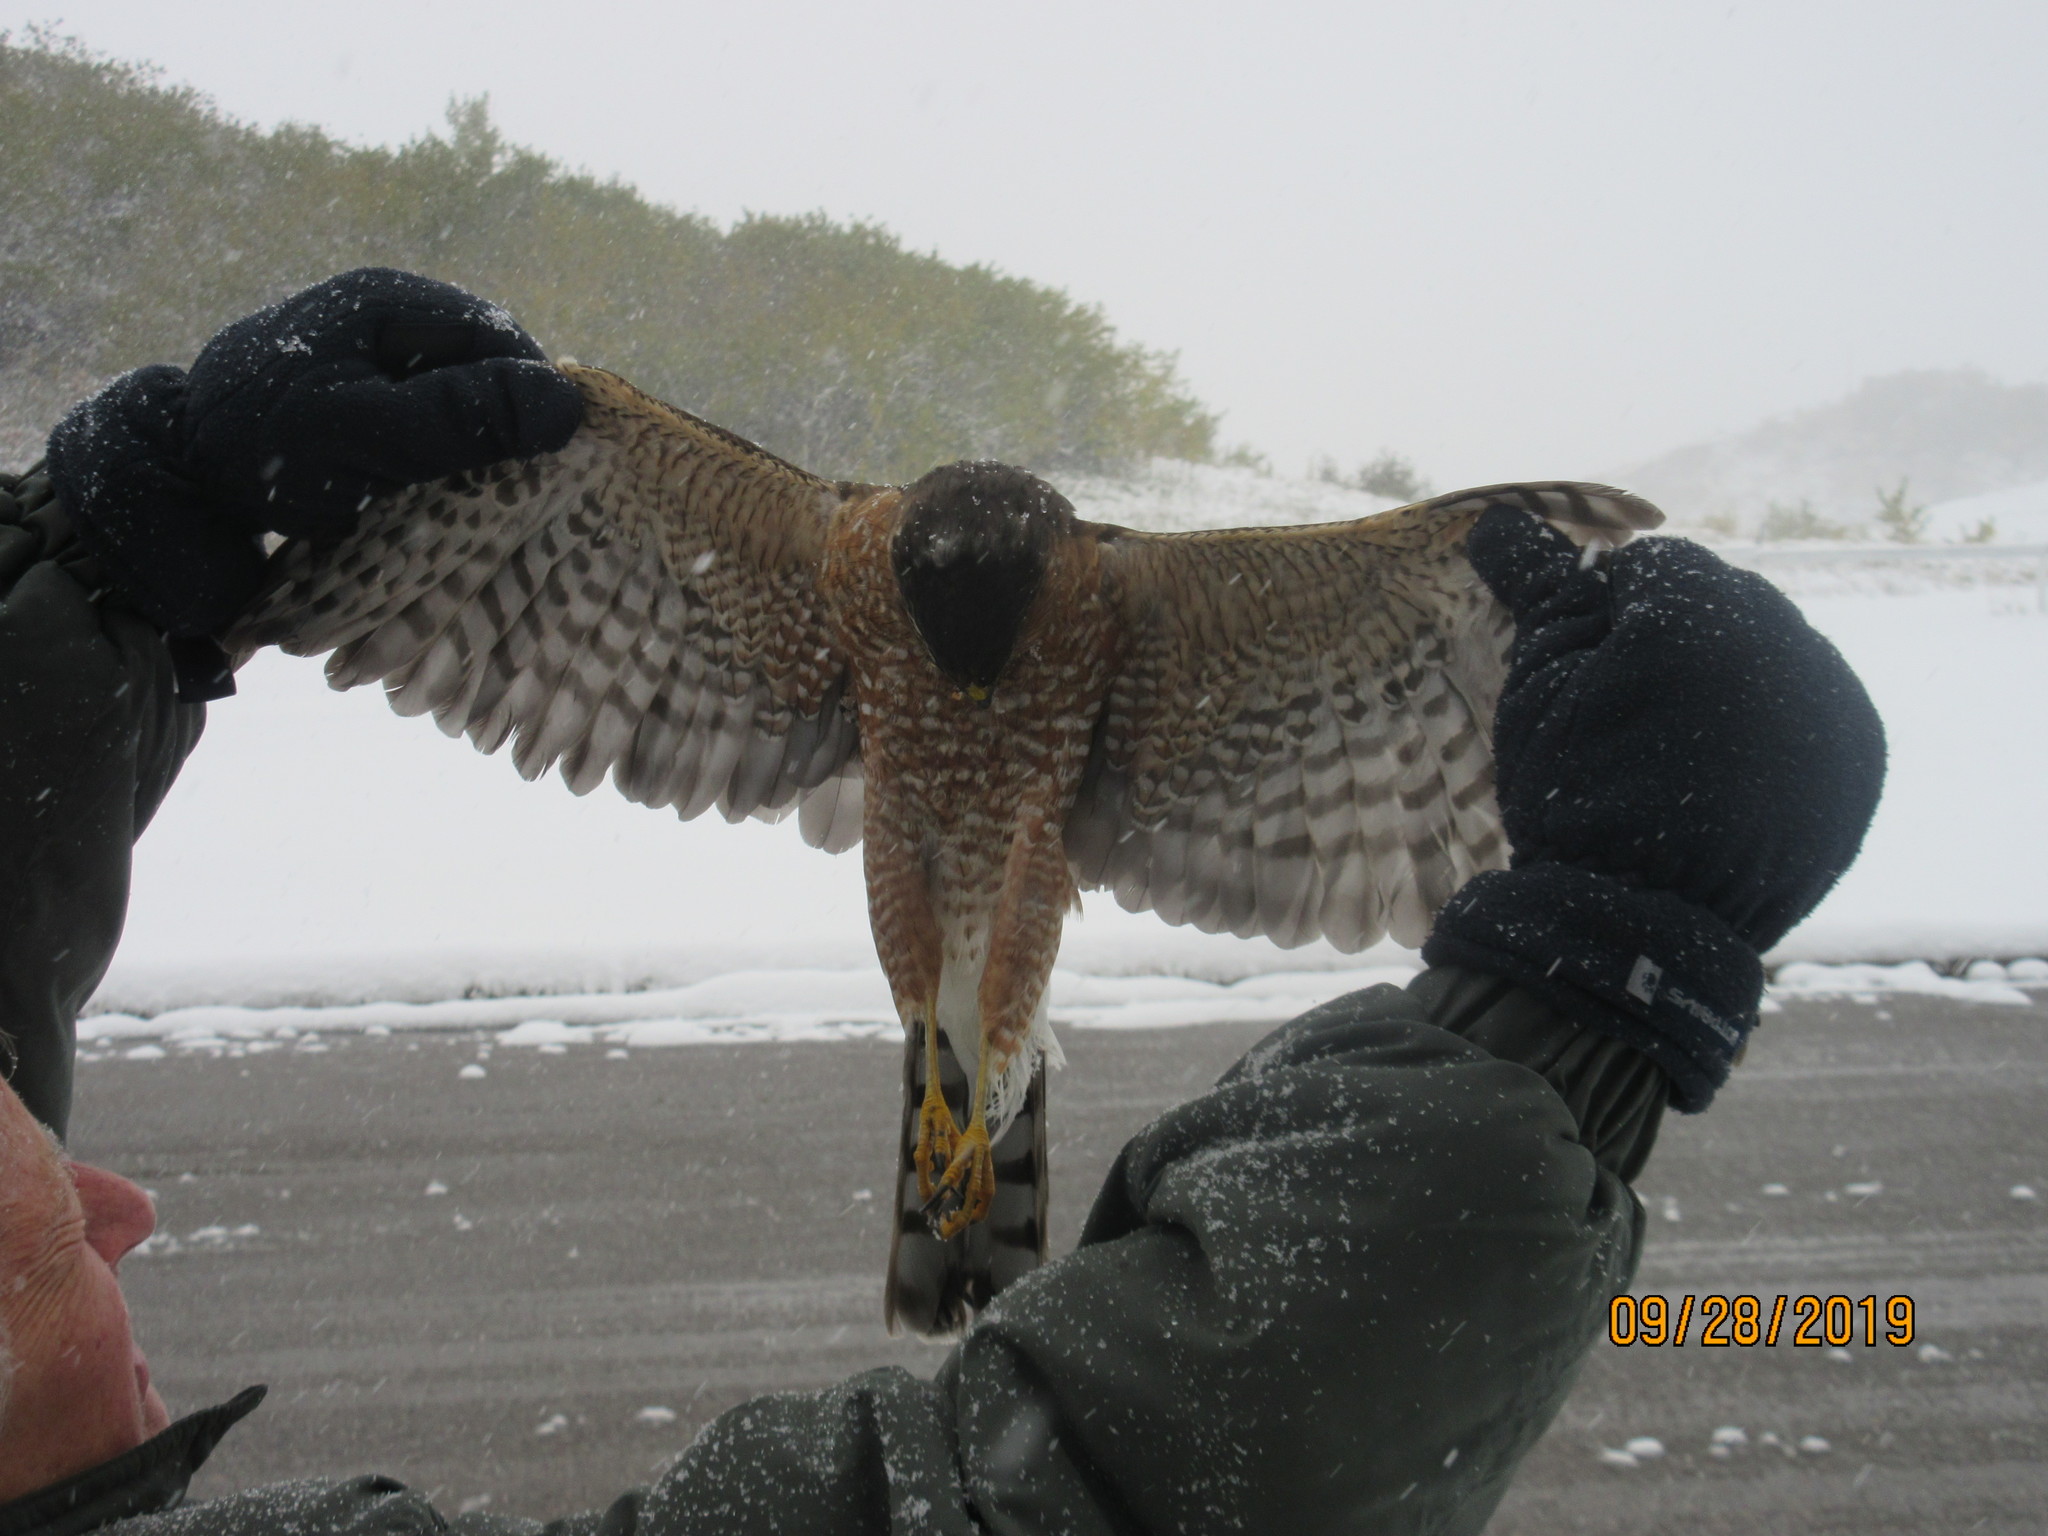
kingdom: Animalia
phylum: Chordata
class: Aves
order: Accipitriformes
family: Accipitridae
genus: Accipiter
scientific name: Accipiter striatus
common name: Sharp-shinned hawk
